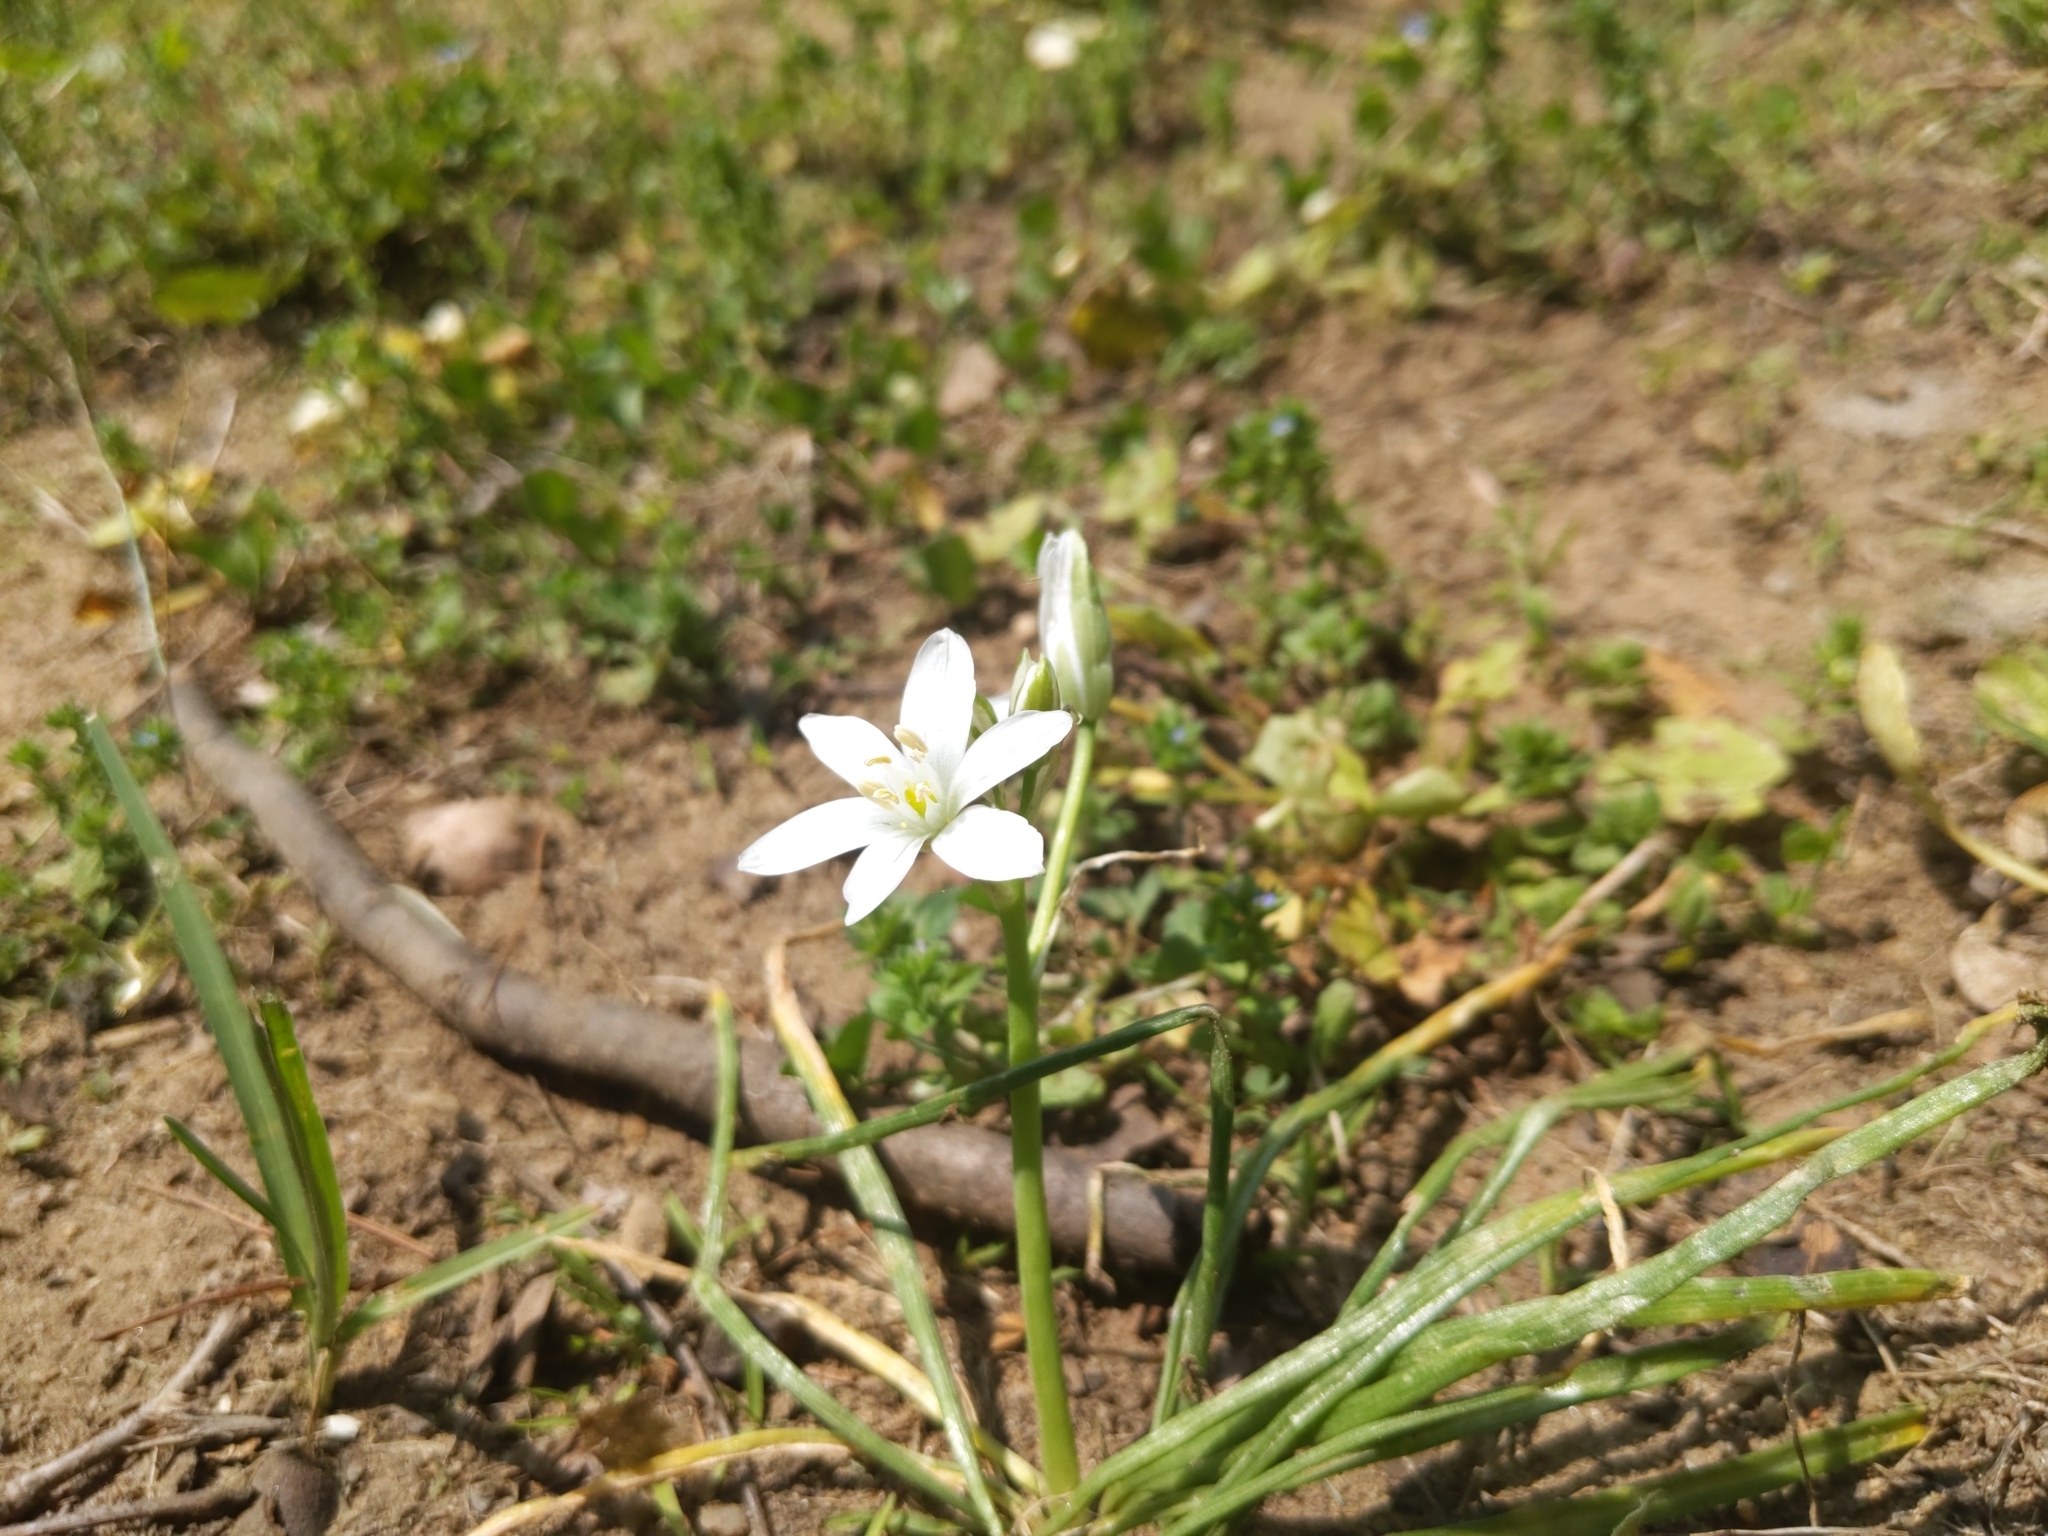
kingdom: Plantae
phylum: Tracheophyta
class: Liliopsida
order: Asparagales
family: Asparagaceae
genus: Ornithogalum
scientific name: Ornithogalum umbellatum
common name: Garden star-of-bethlehem
